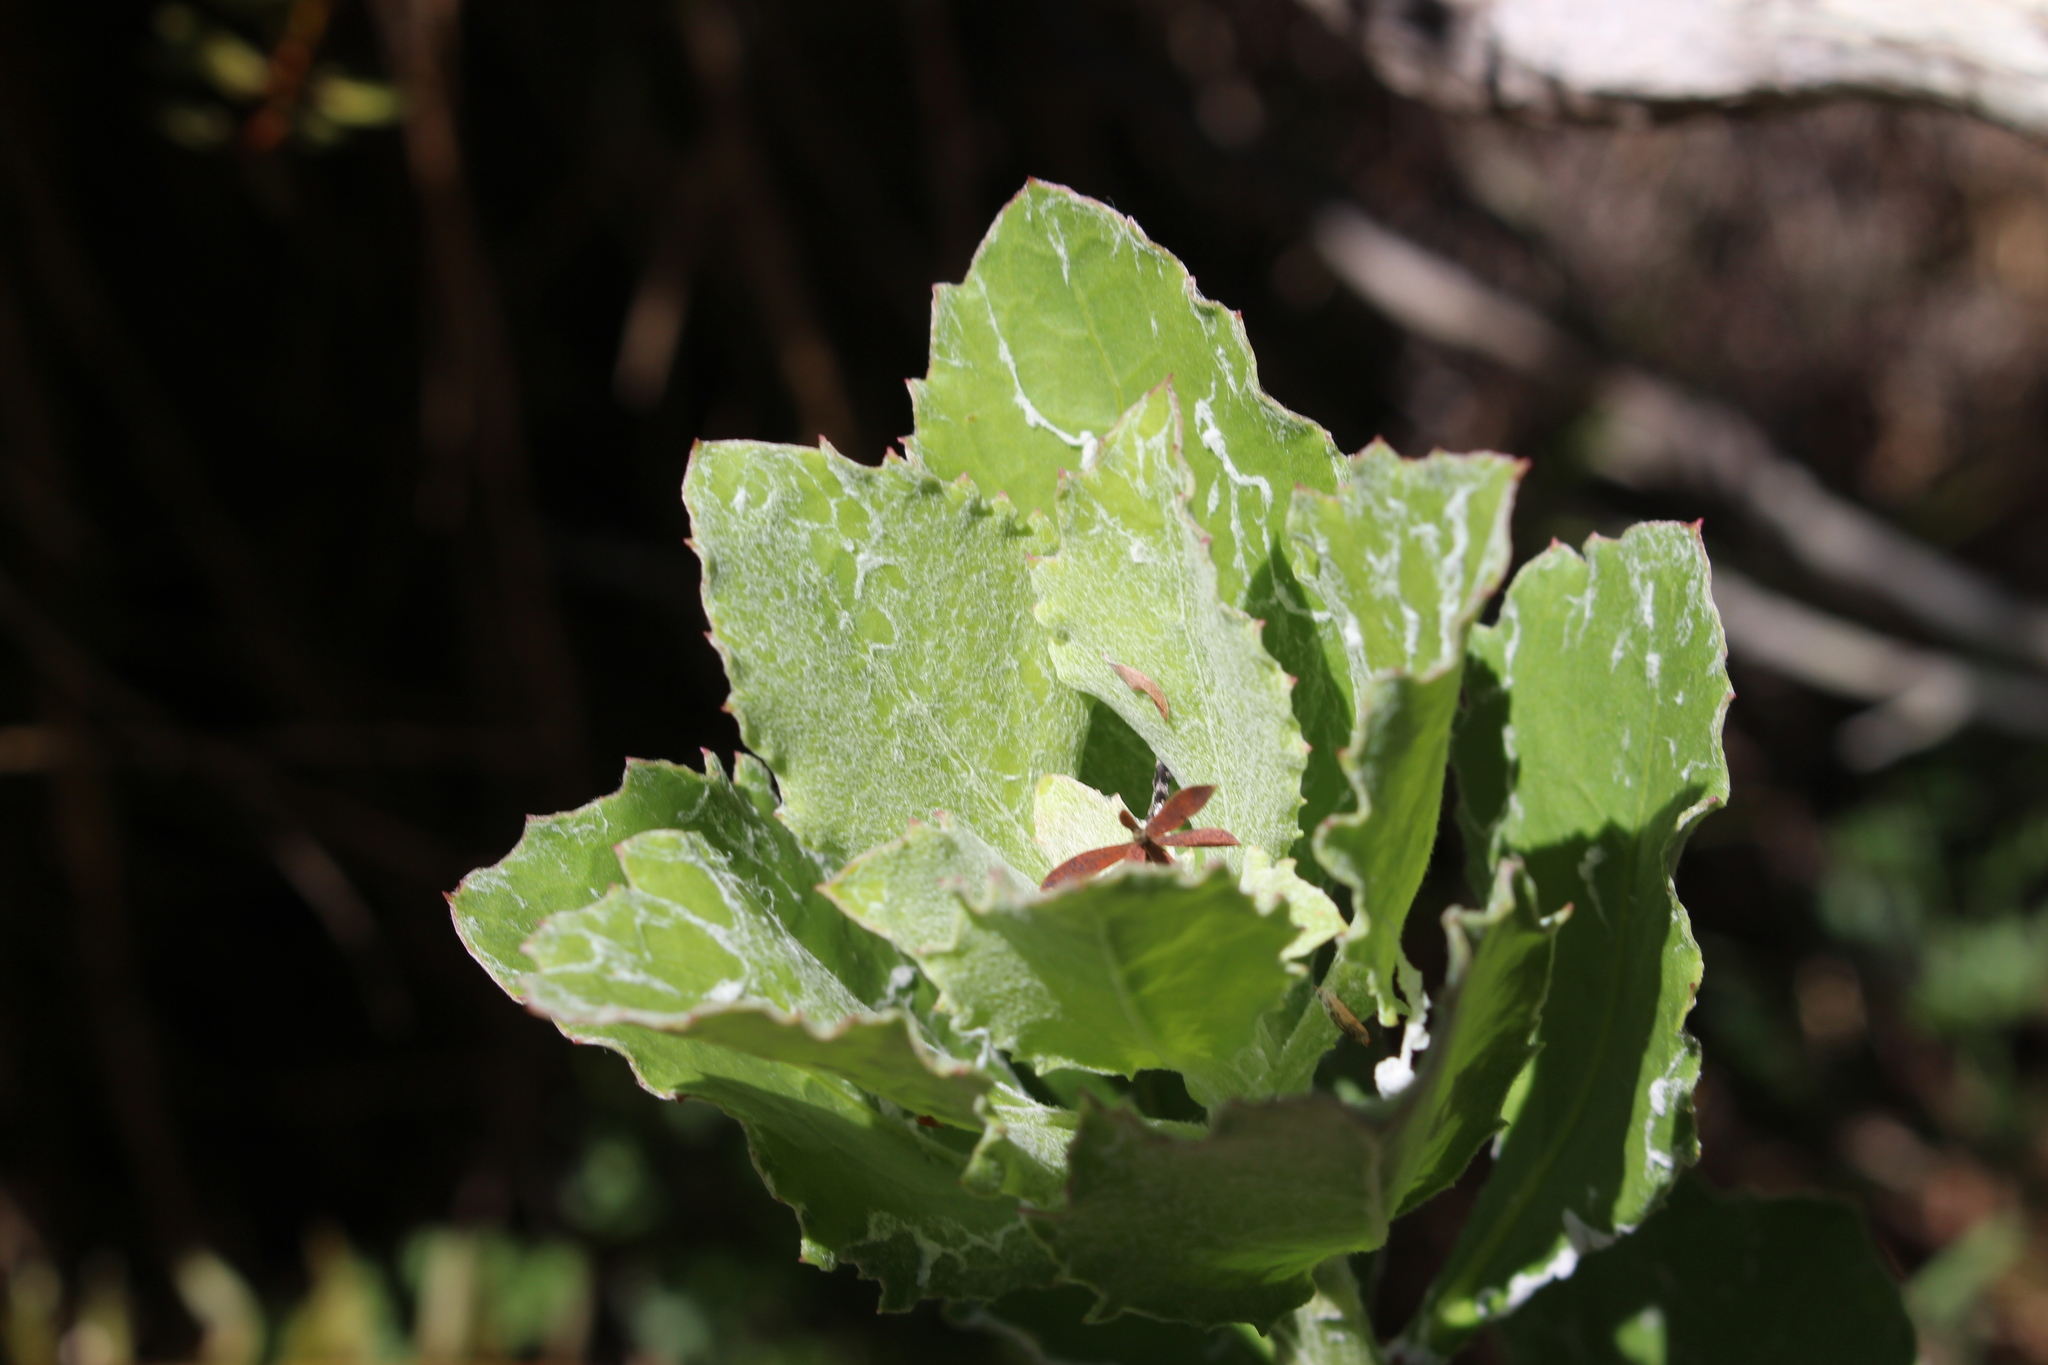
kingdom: Plantae
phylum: Tracheophyta
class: Magnoliopsida
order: Asterales
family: Asteraceae
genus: Osteospermum
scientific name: Osteospermum moniliferum
